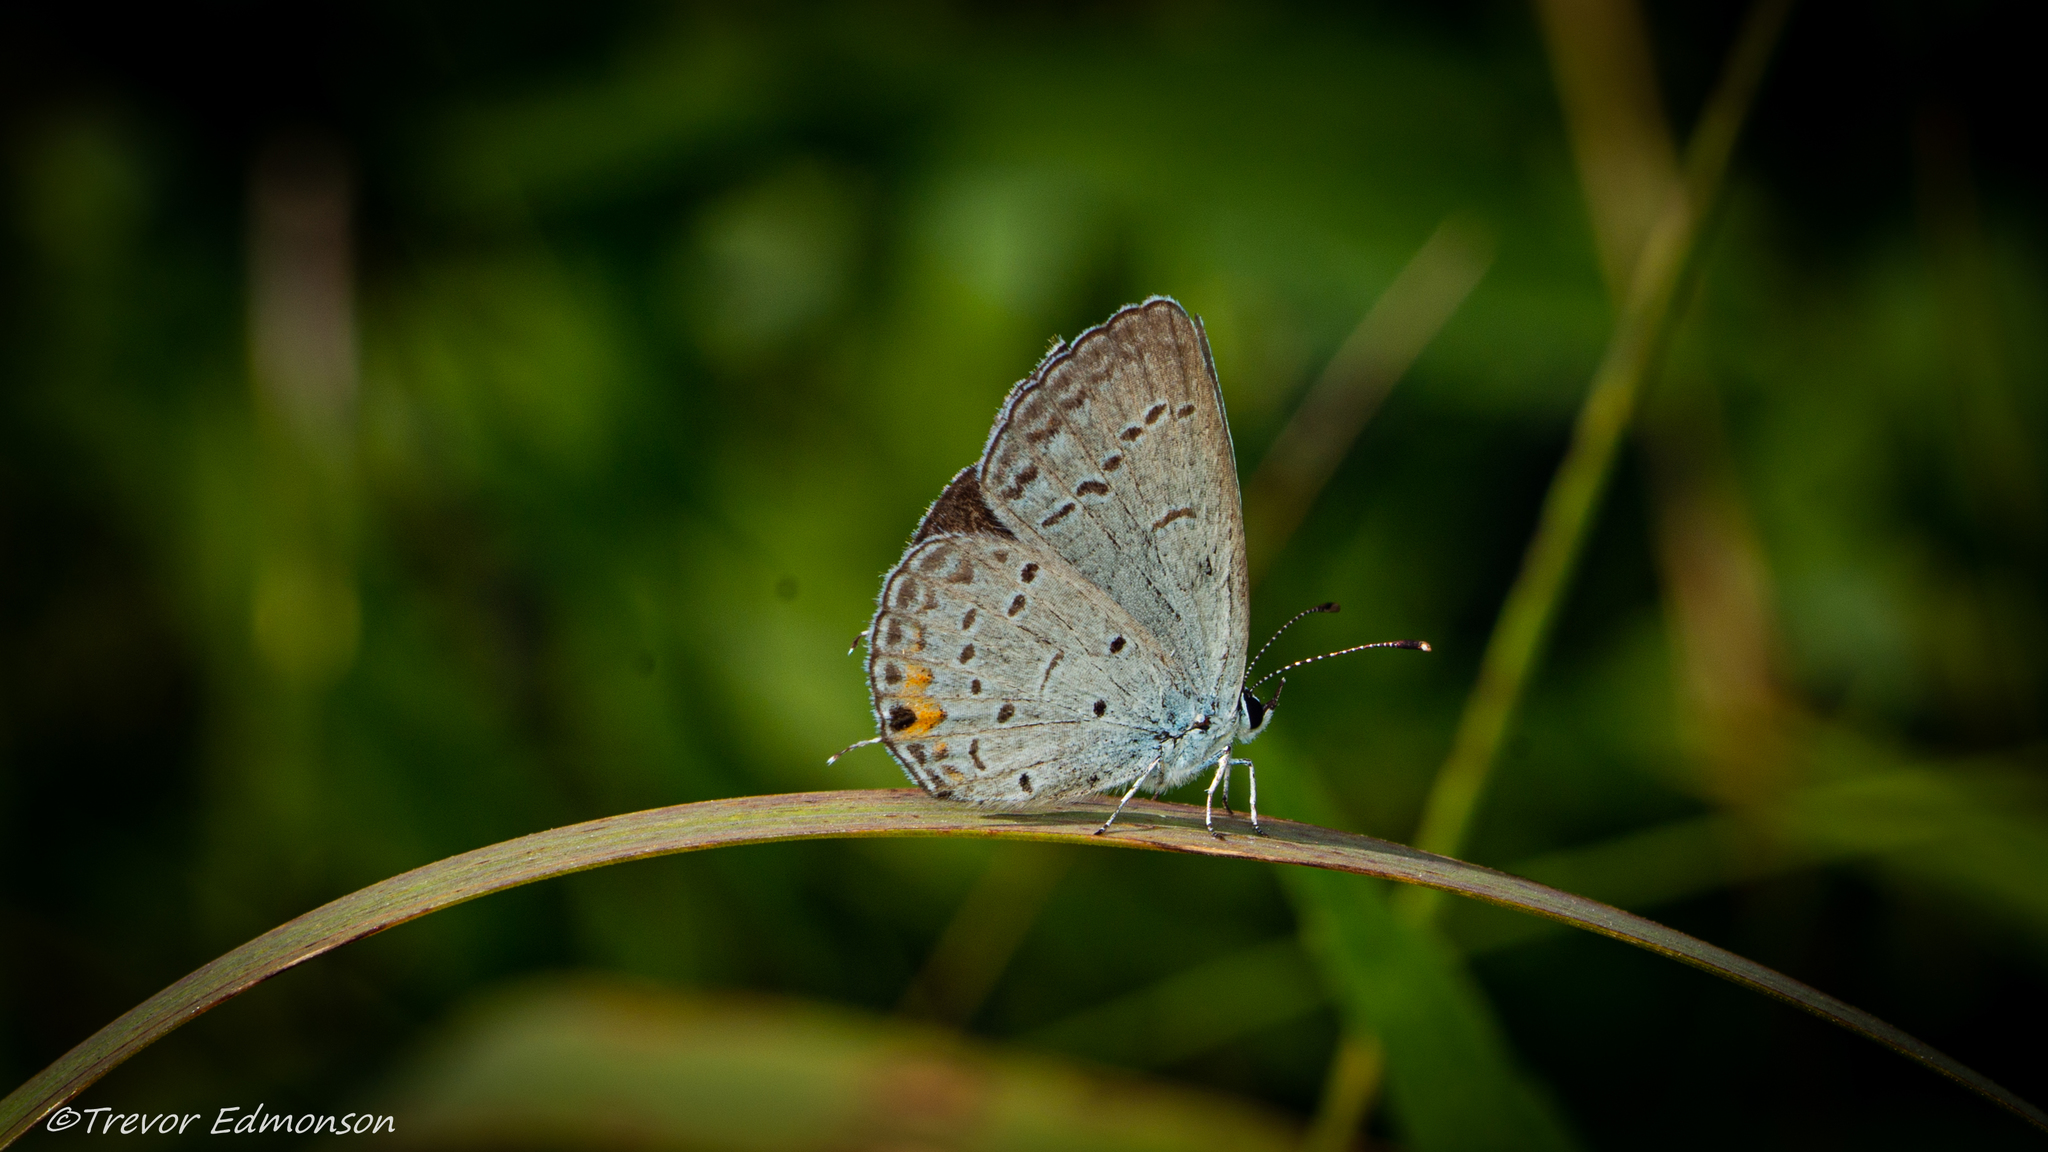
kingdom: Animalia
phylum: Arthropoda
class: Insecta
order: Lepidoptera
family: Lycaenidae
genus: Elkalyce
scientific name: Elkalyce comyntas
